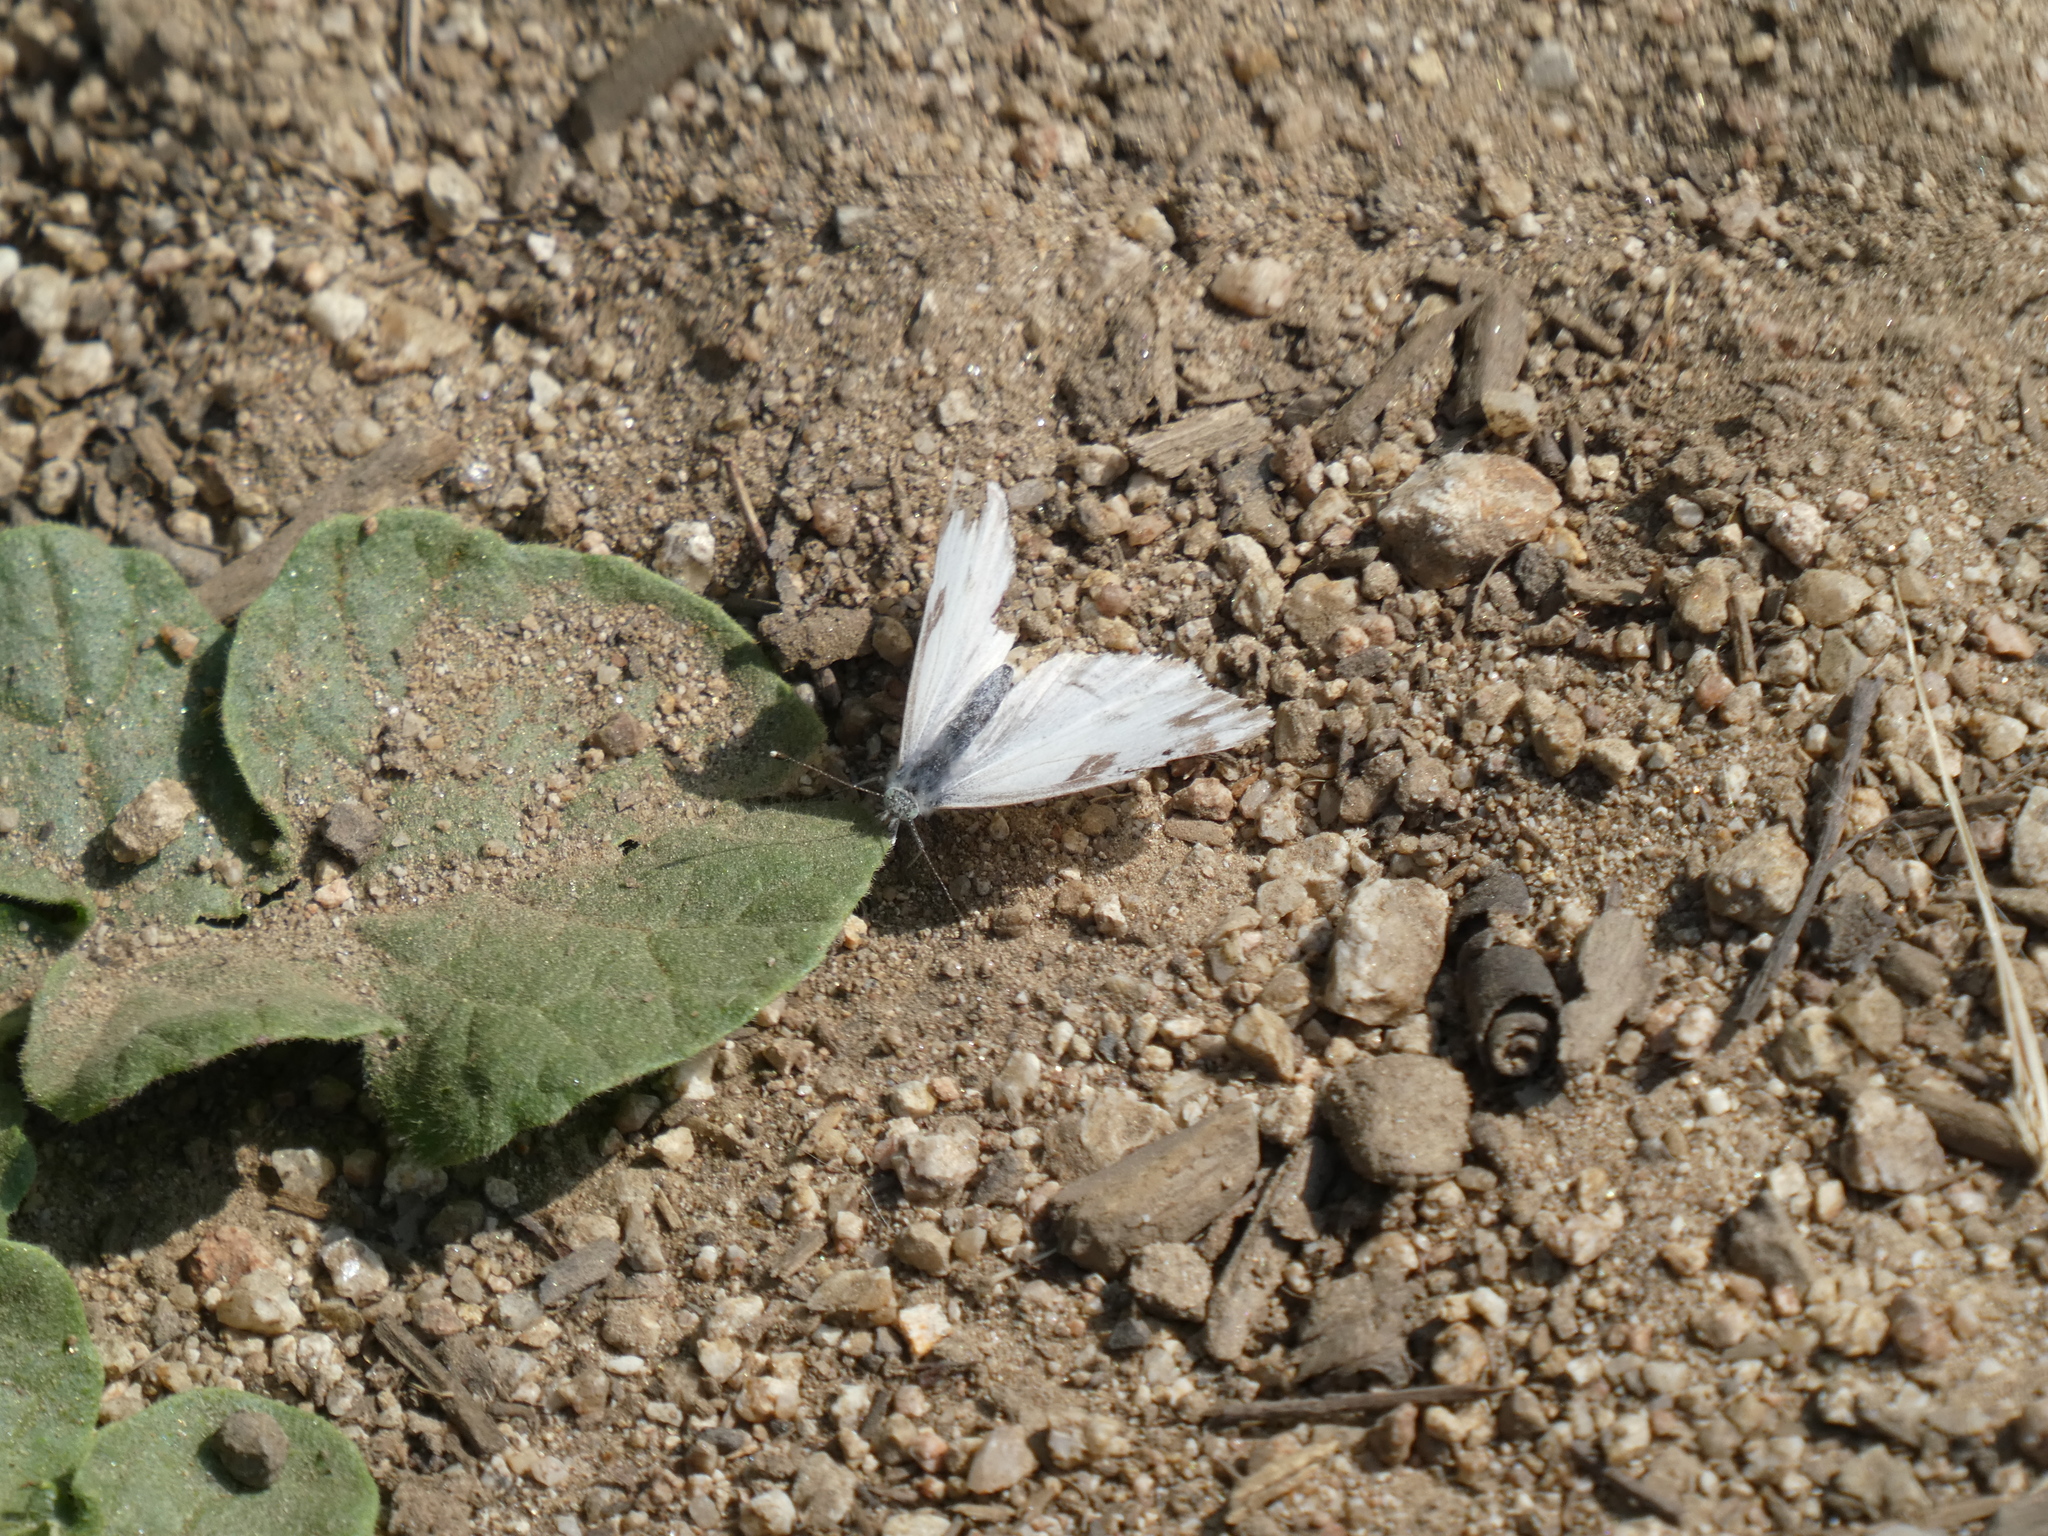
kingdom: Animalia
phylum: Arthropoda
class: Insecta
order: Lepidoptera
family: Pieridae
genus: Pontia
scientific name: Pontia protodice
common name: Checkered white
